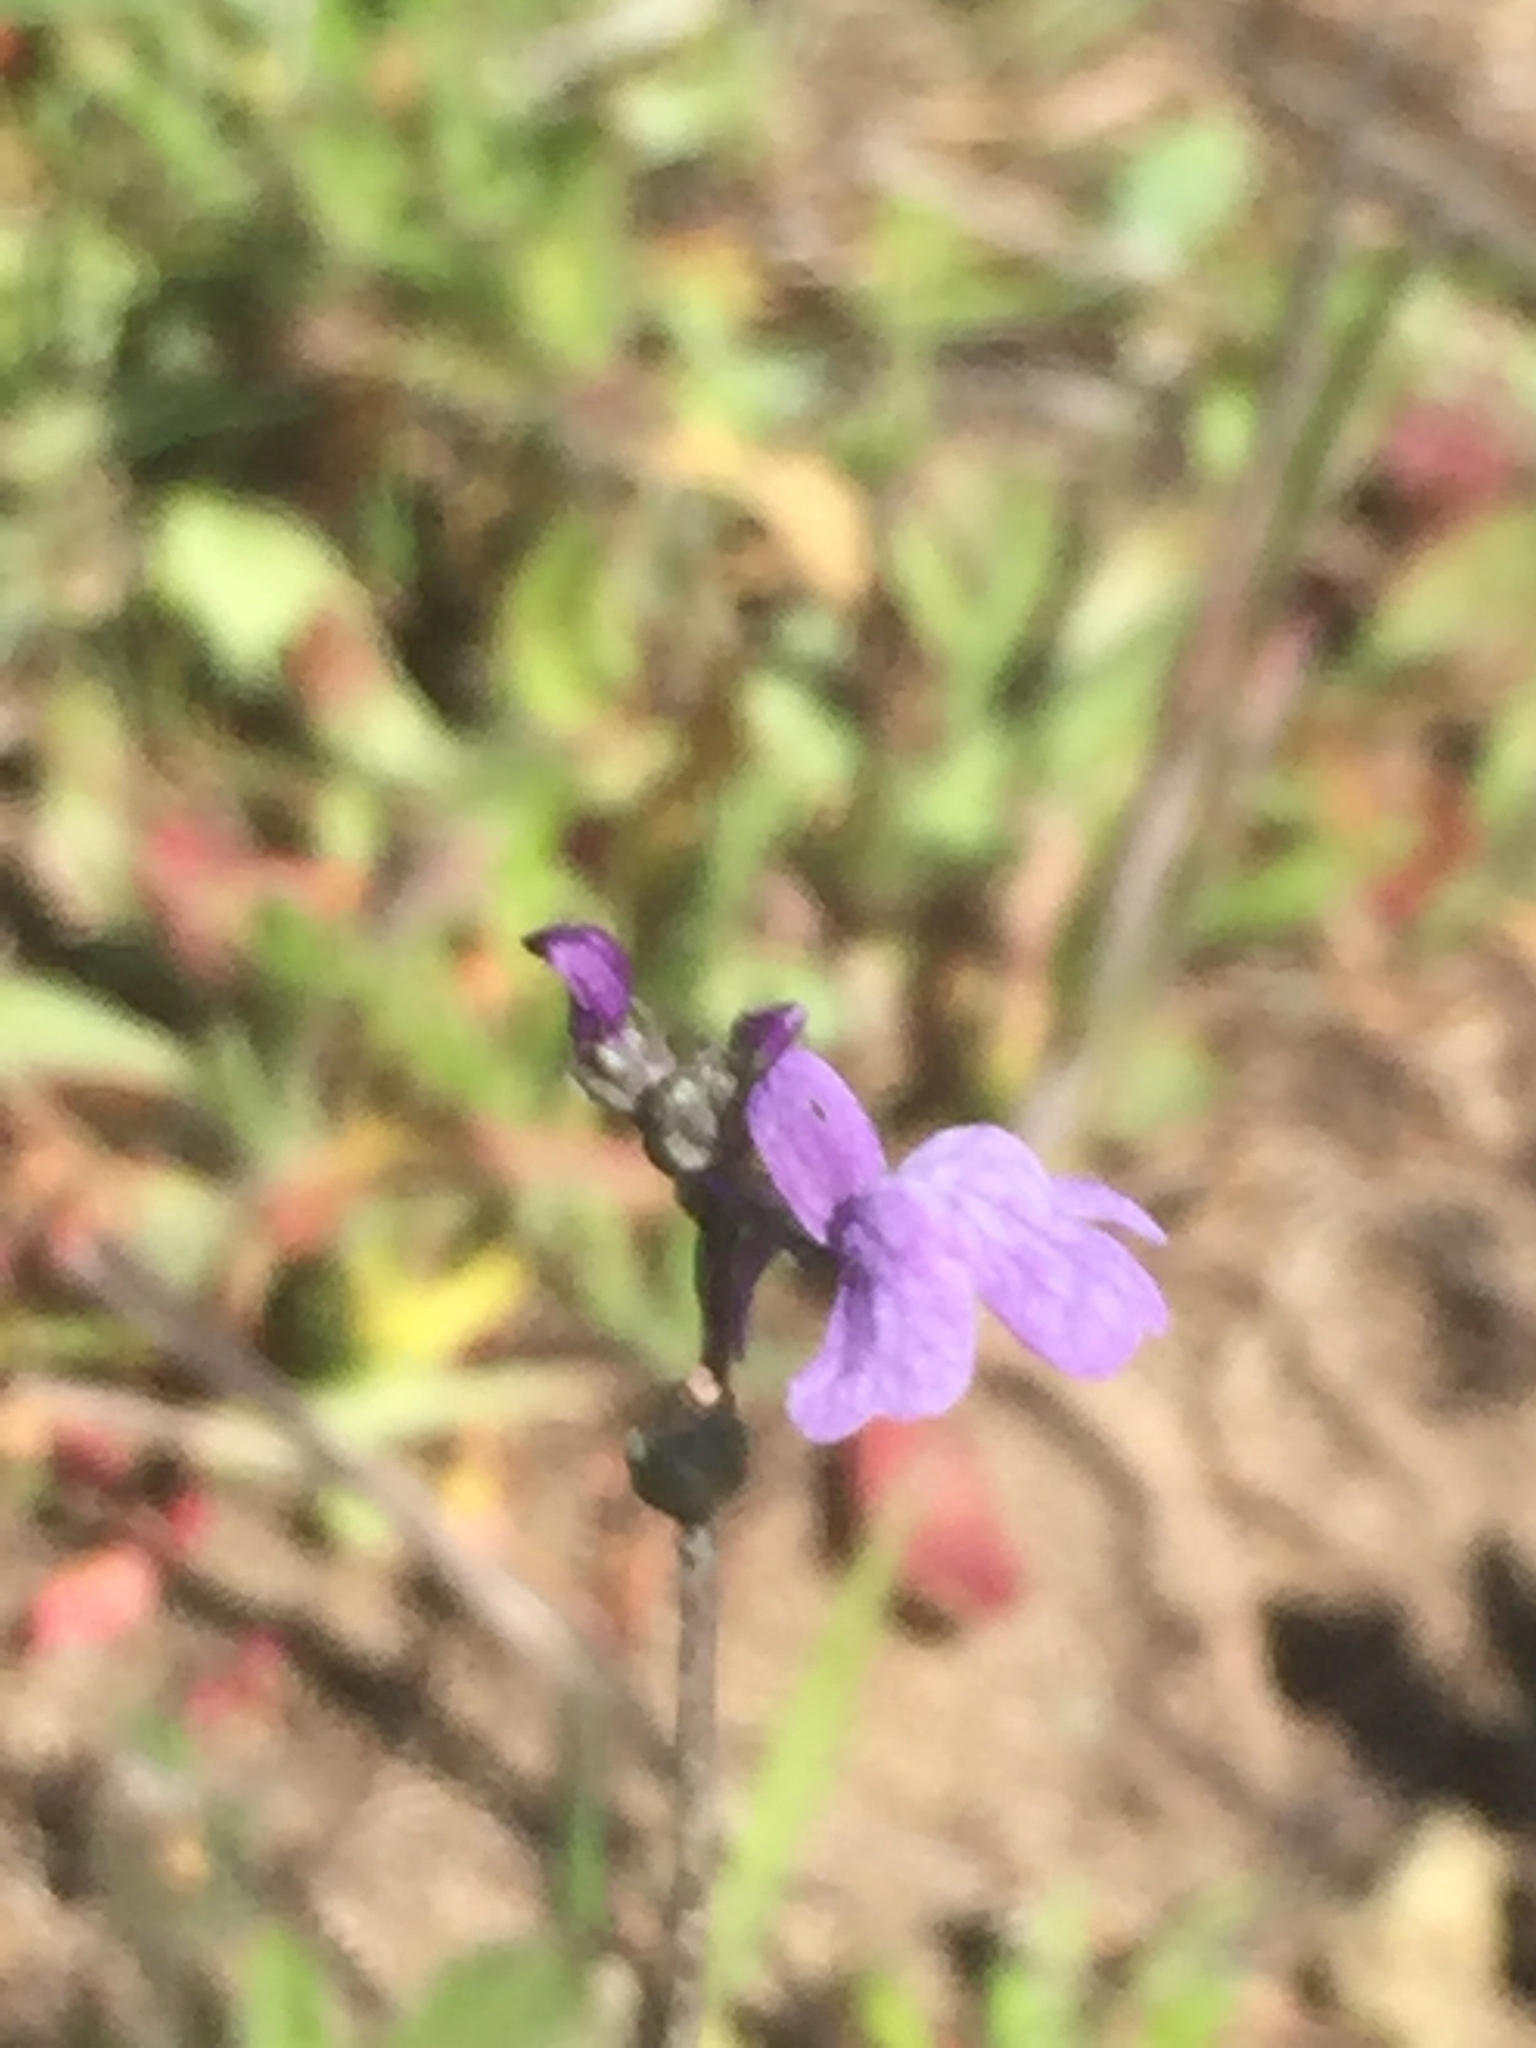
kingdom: Plantae
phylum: Tracheophyta
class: Magnoliopsida
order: Lamiales
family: Plantaginaceae
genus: Nuttallanthus
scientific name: Nuttallanthus texanus
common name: Texas toadflax
